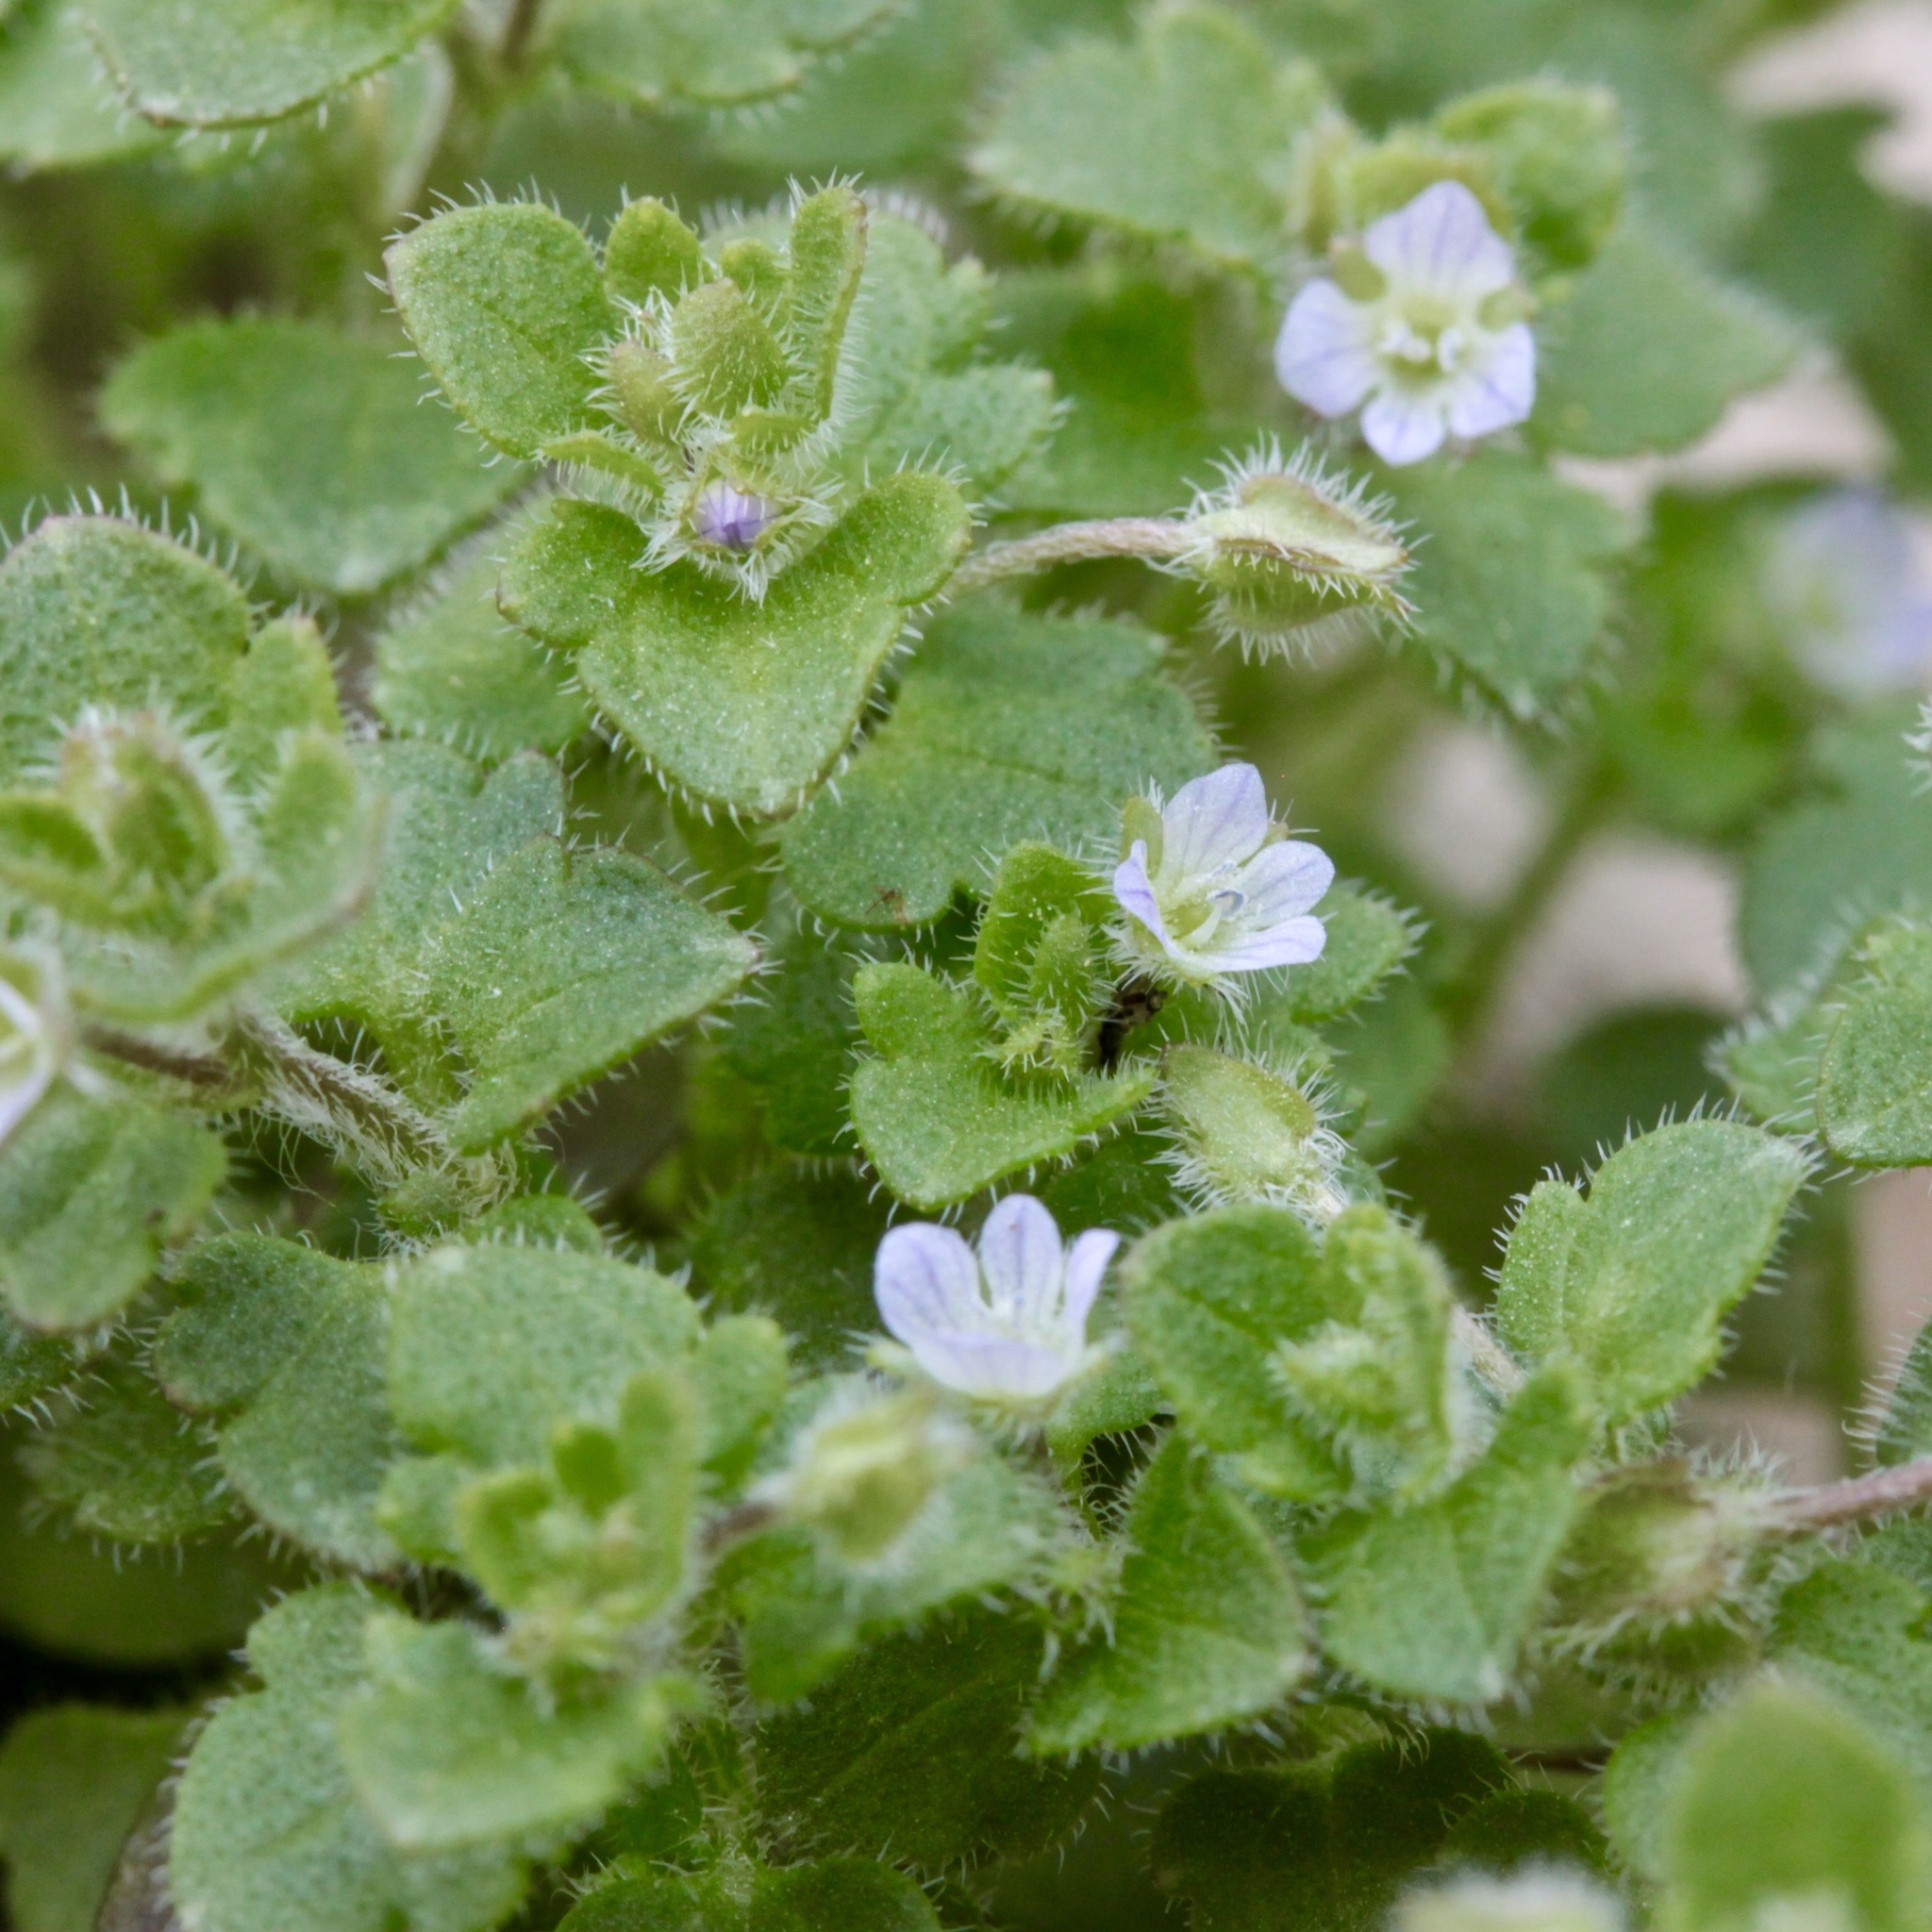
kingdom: Plantae
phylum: Tracheophyta
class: Magnoliopsida
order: Lamiales
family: Plantaginaceae
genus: Veronica
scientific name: Veronica sublobata
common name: False ivy-leaved speedwell
